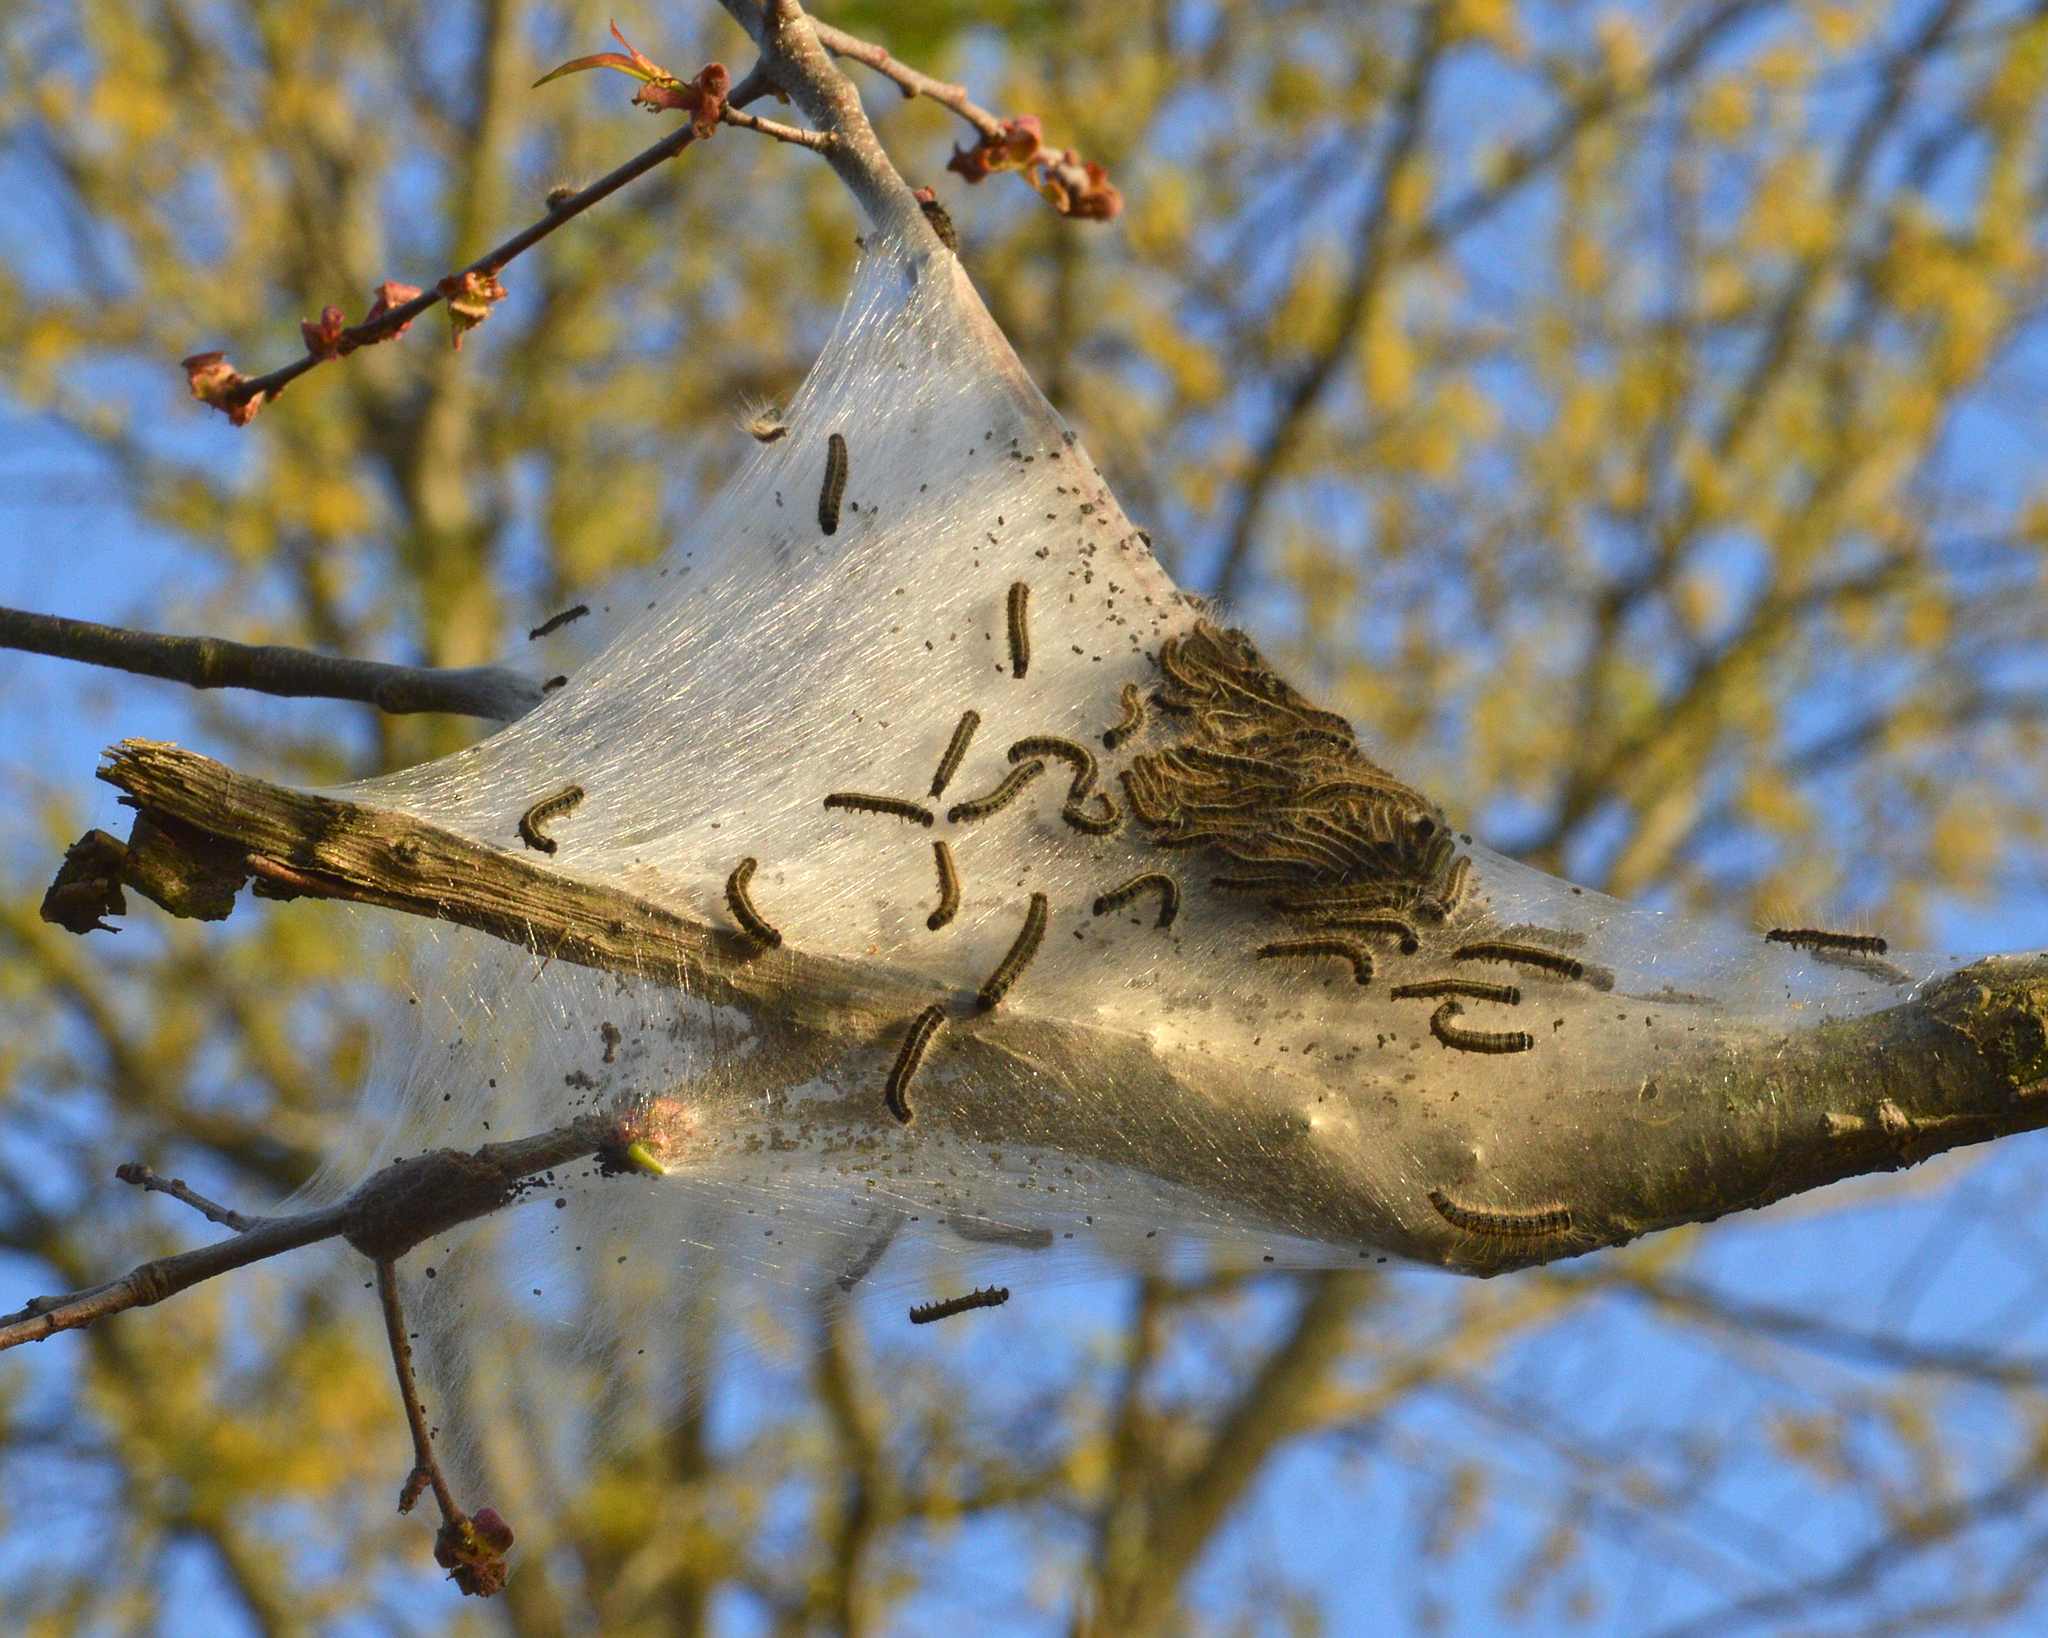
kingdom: Animalia
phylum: Arthropoda
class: Insecta
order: Lepidoptera
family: Lasiocampidae
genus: Malacosoma
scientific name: Malacosoma americana
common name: Eastern tent caterpillar moth
